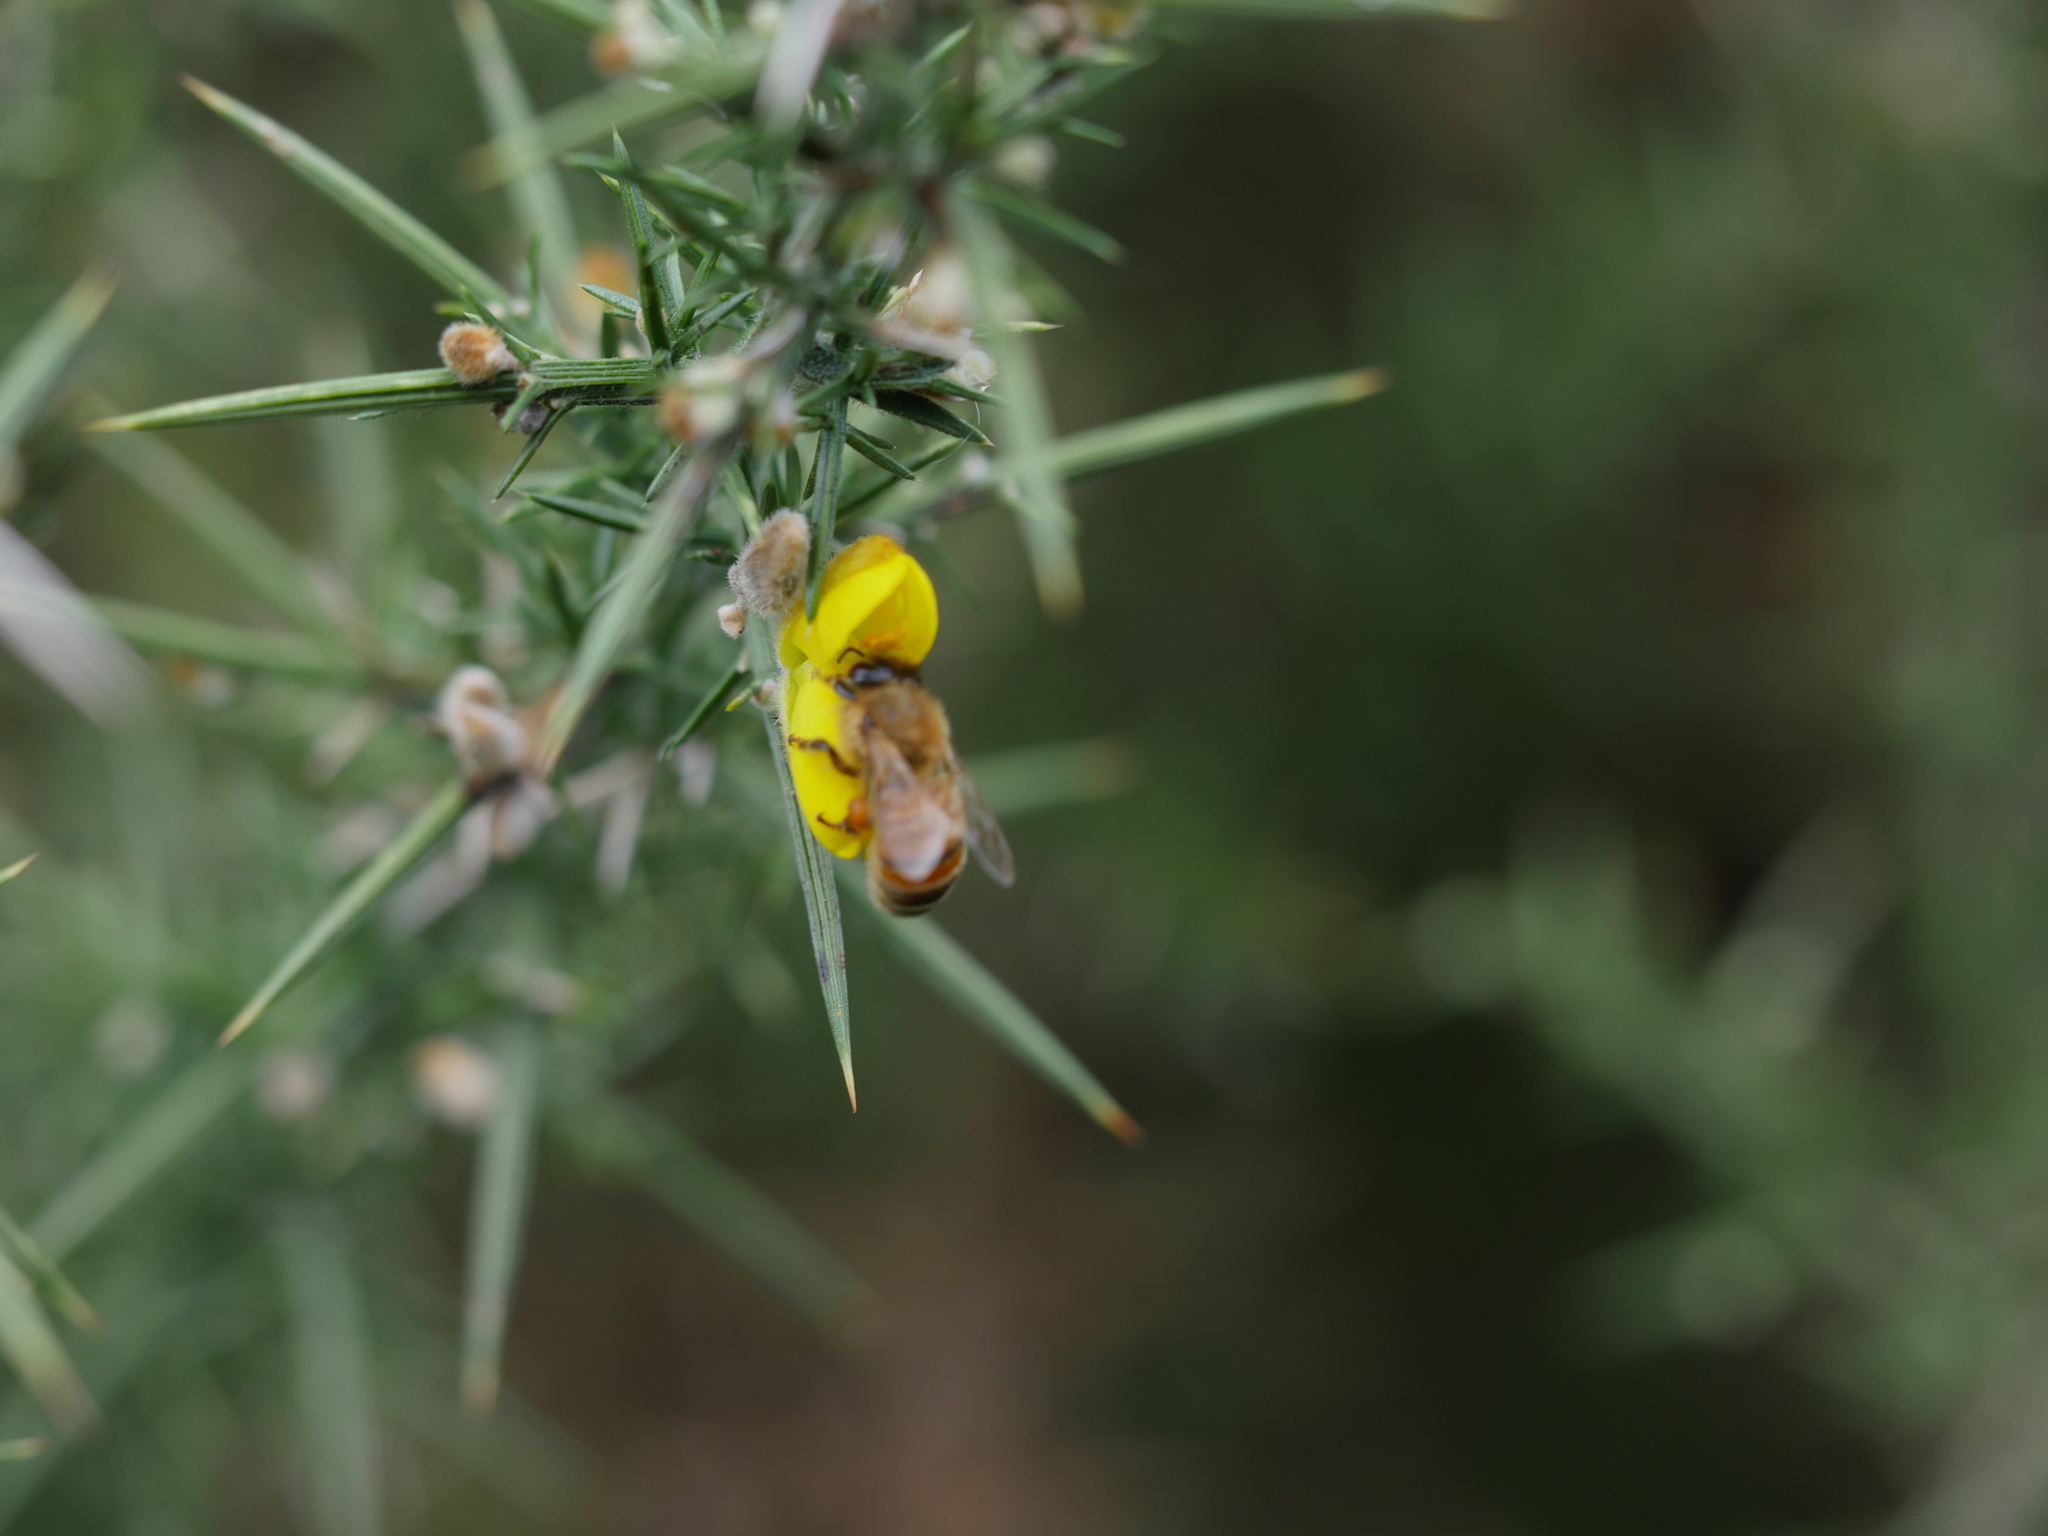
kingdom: Plantae
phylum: Tracheophyta
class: Magnoliopsida
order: Fabales
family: Fabaceae
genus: Ulex
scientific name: Ulex europaeus
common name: Common gorse
